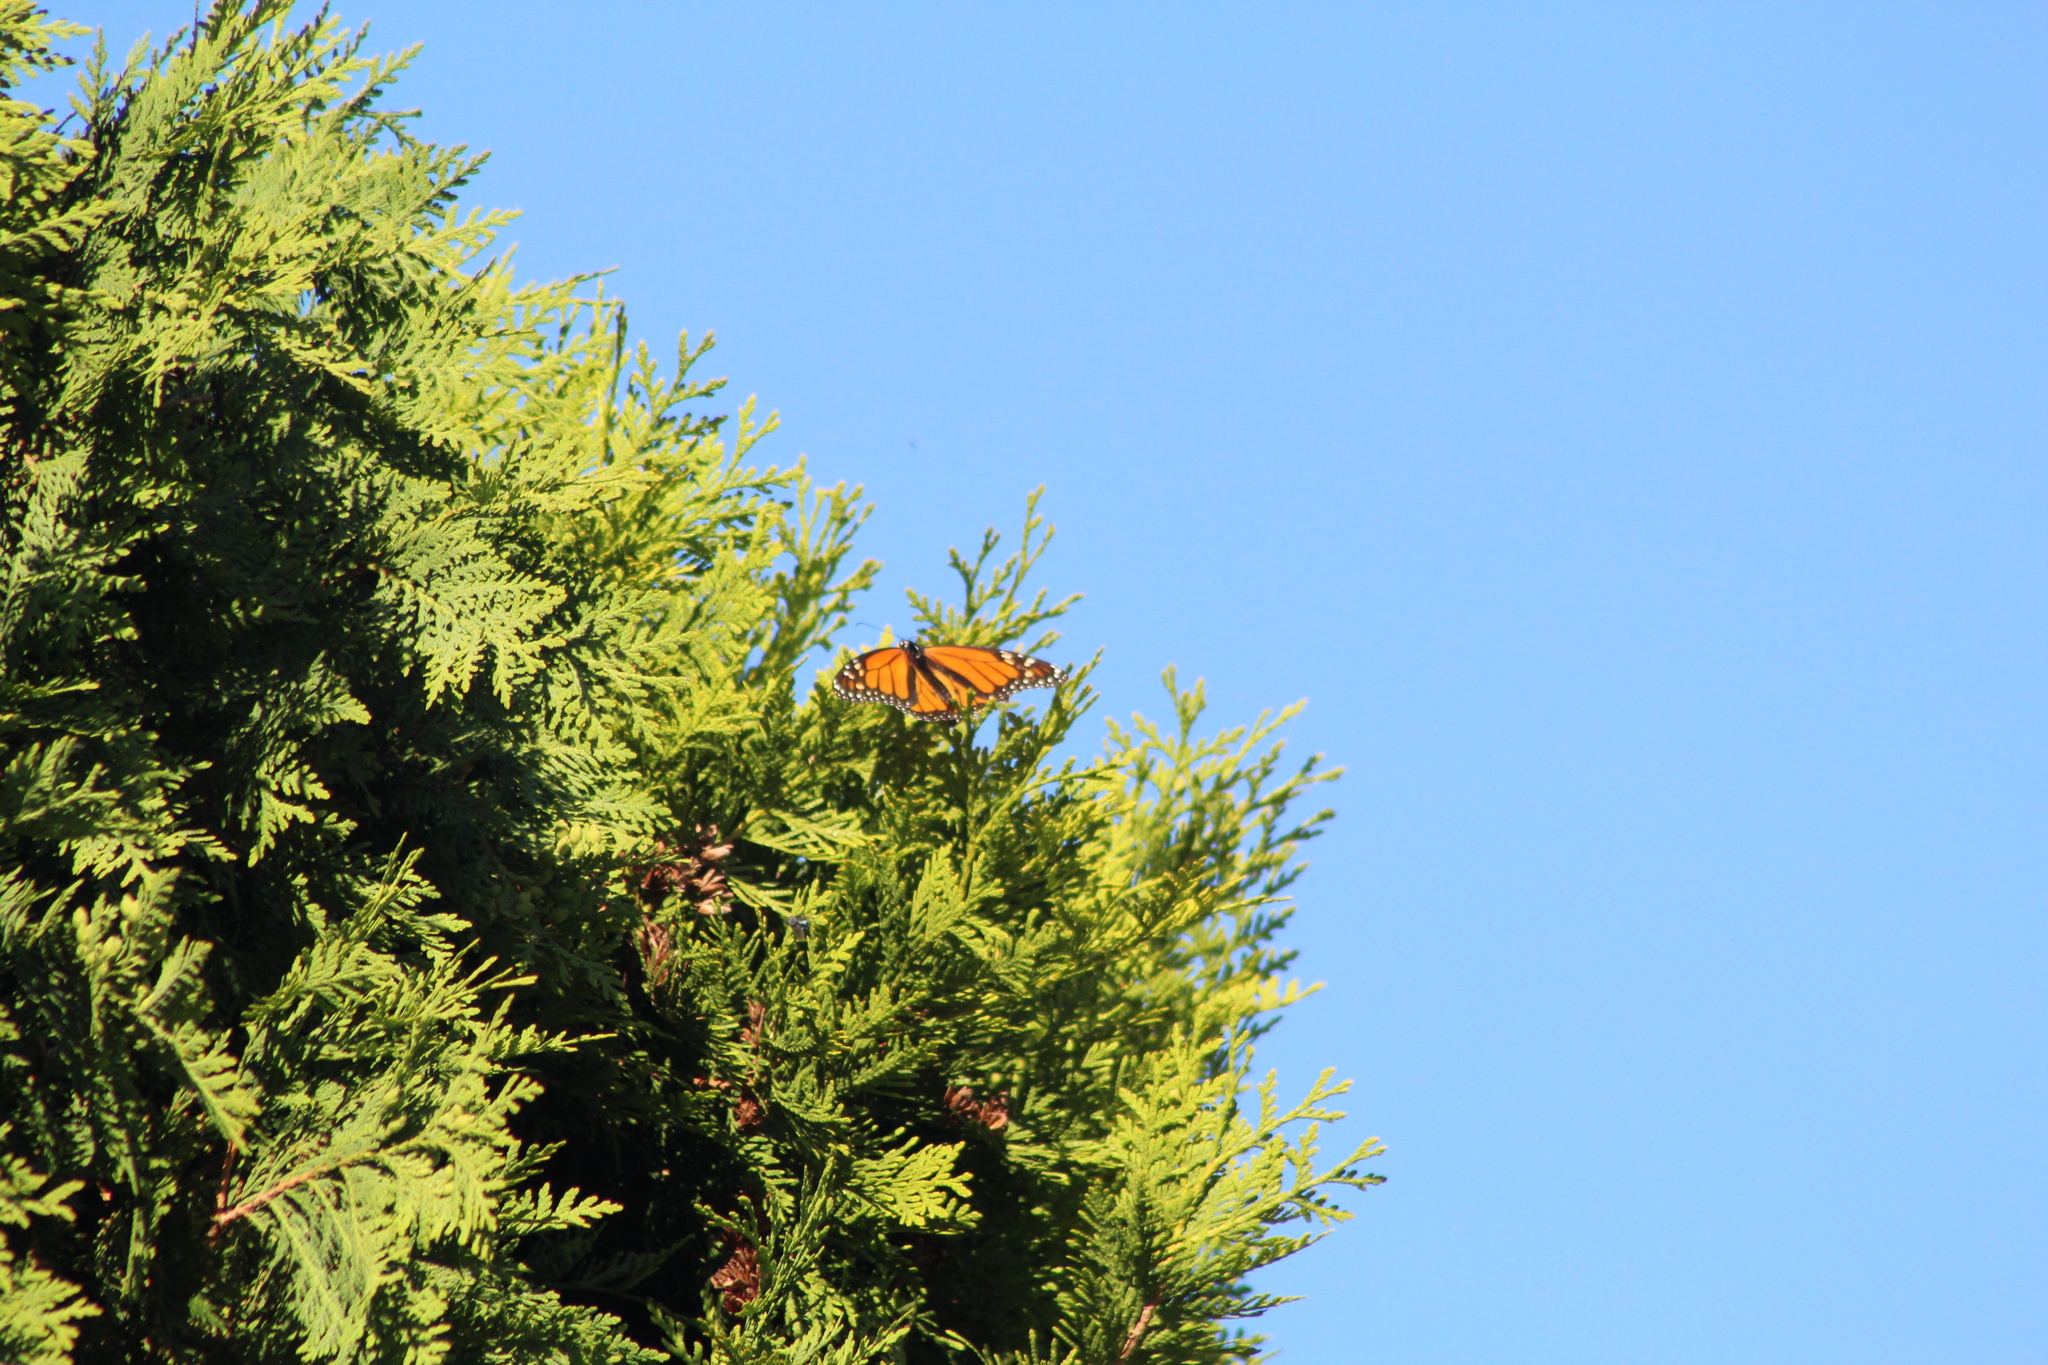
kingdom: Animalia
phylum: Arthropoda
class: Insecta
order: Lepidoptera
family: Nymphalidae
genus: Danaus
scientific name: Danaus plexippus
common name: Monarch
